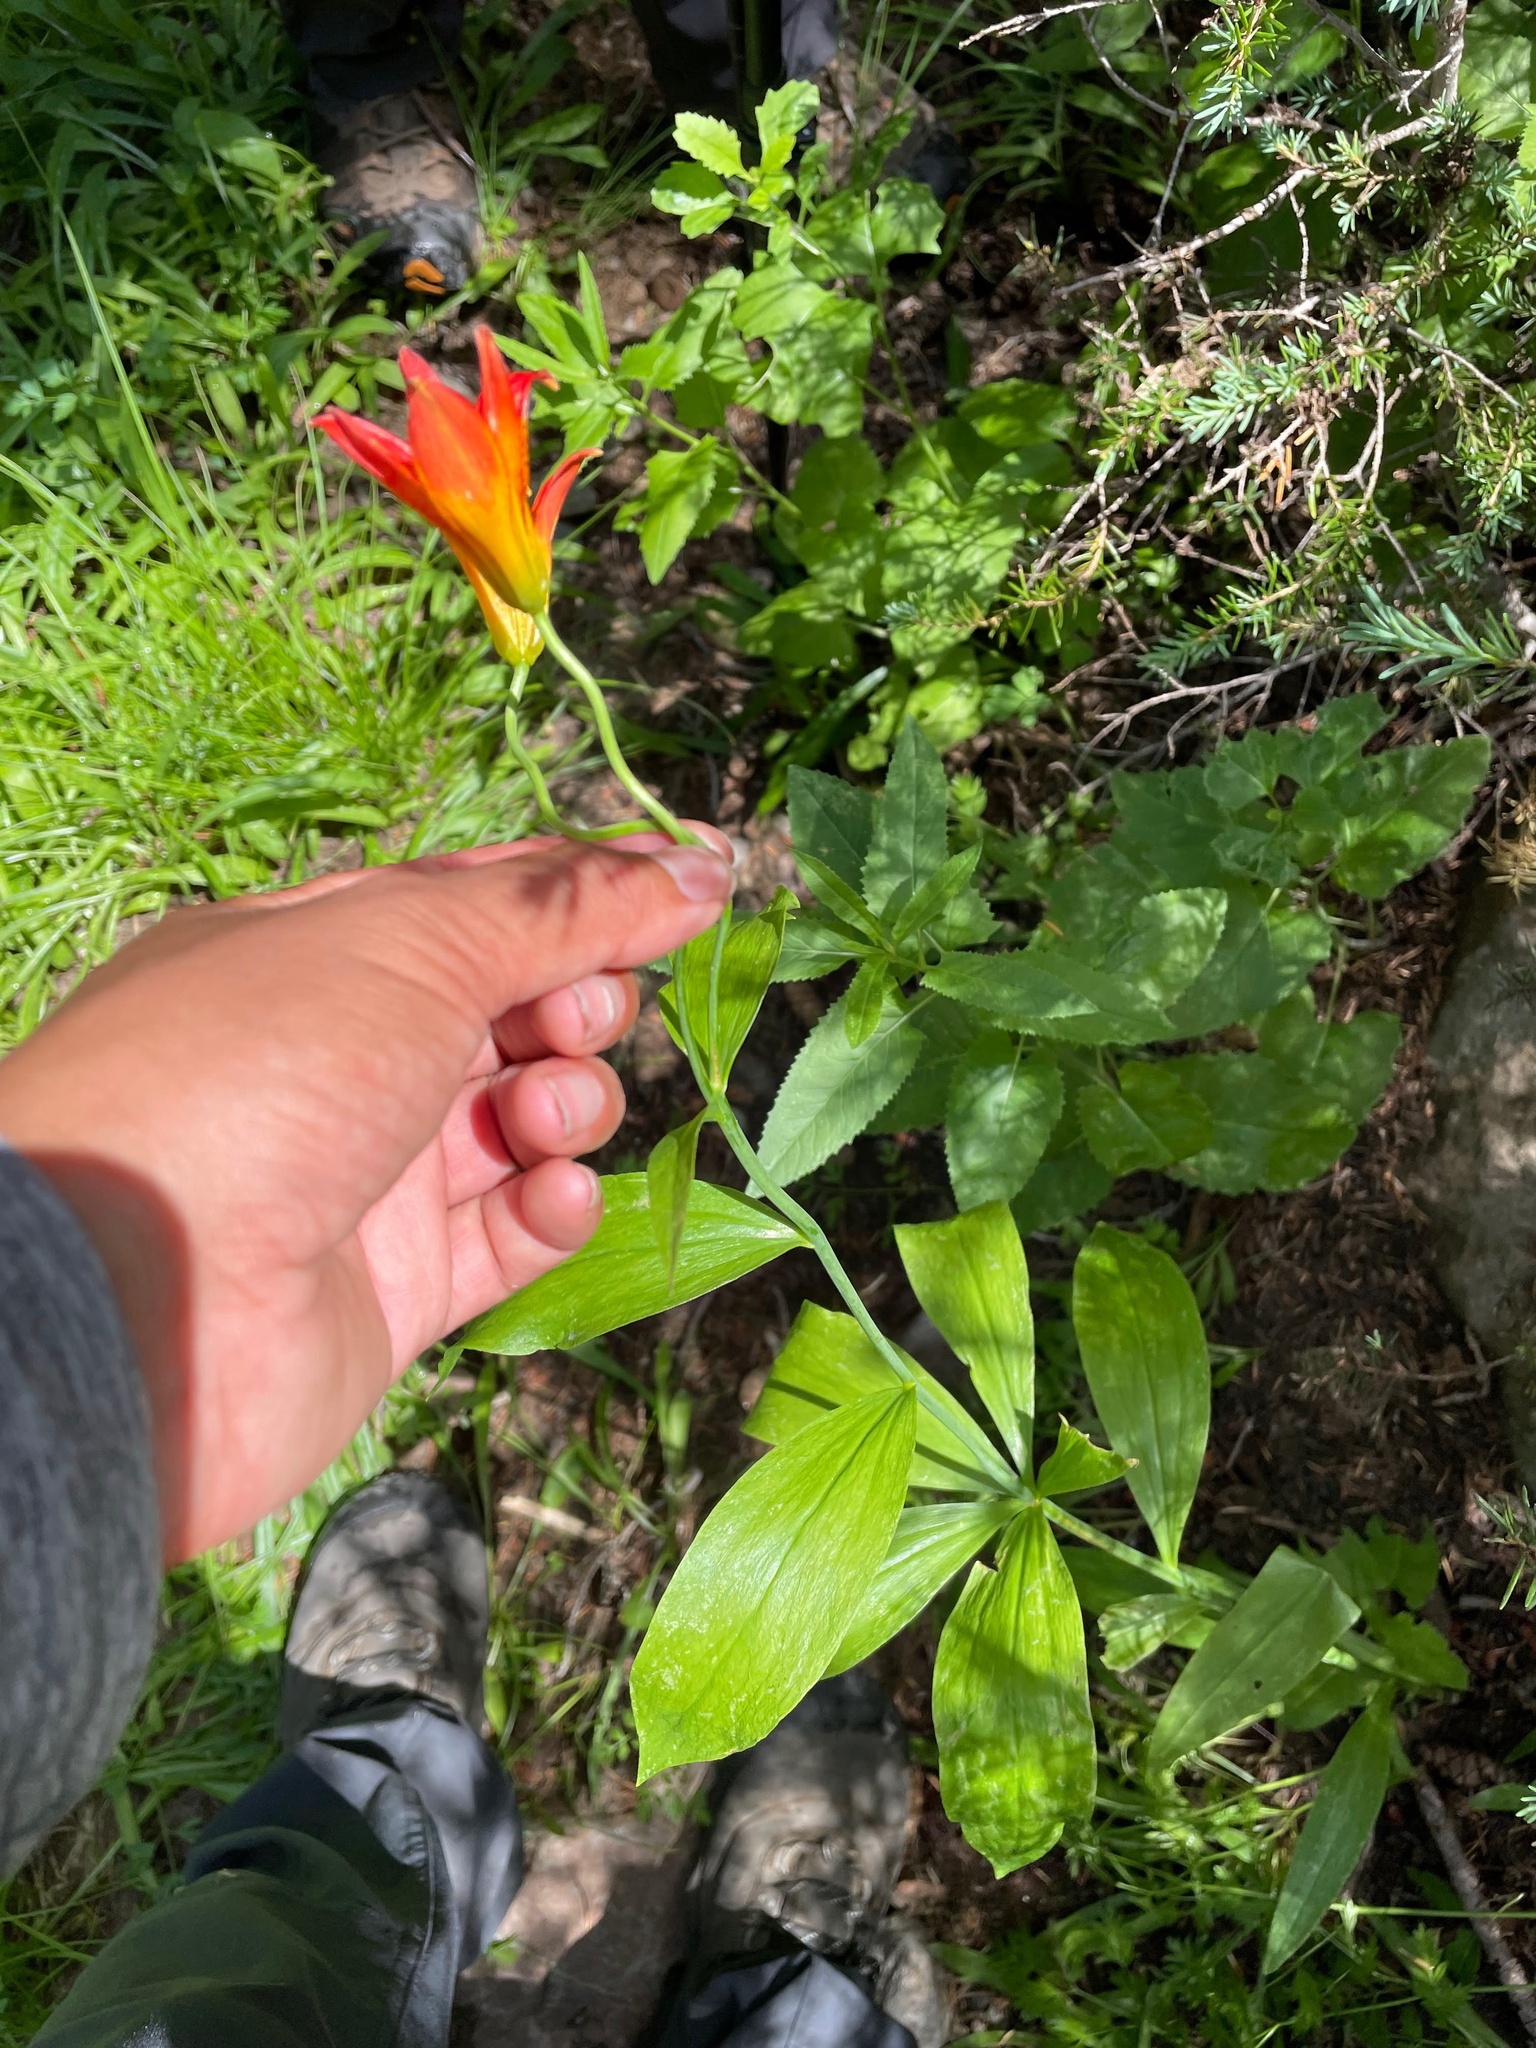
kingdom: Plantae
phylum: Tracheophyta
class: Liliopsida
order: Liliales
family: Liliaceae
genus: Lilium
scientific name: Lilium parvum
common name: Alpine lily
